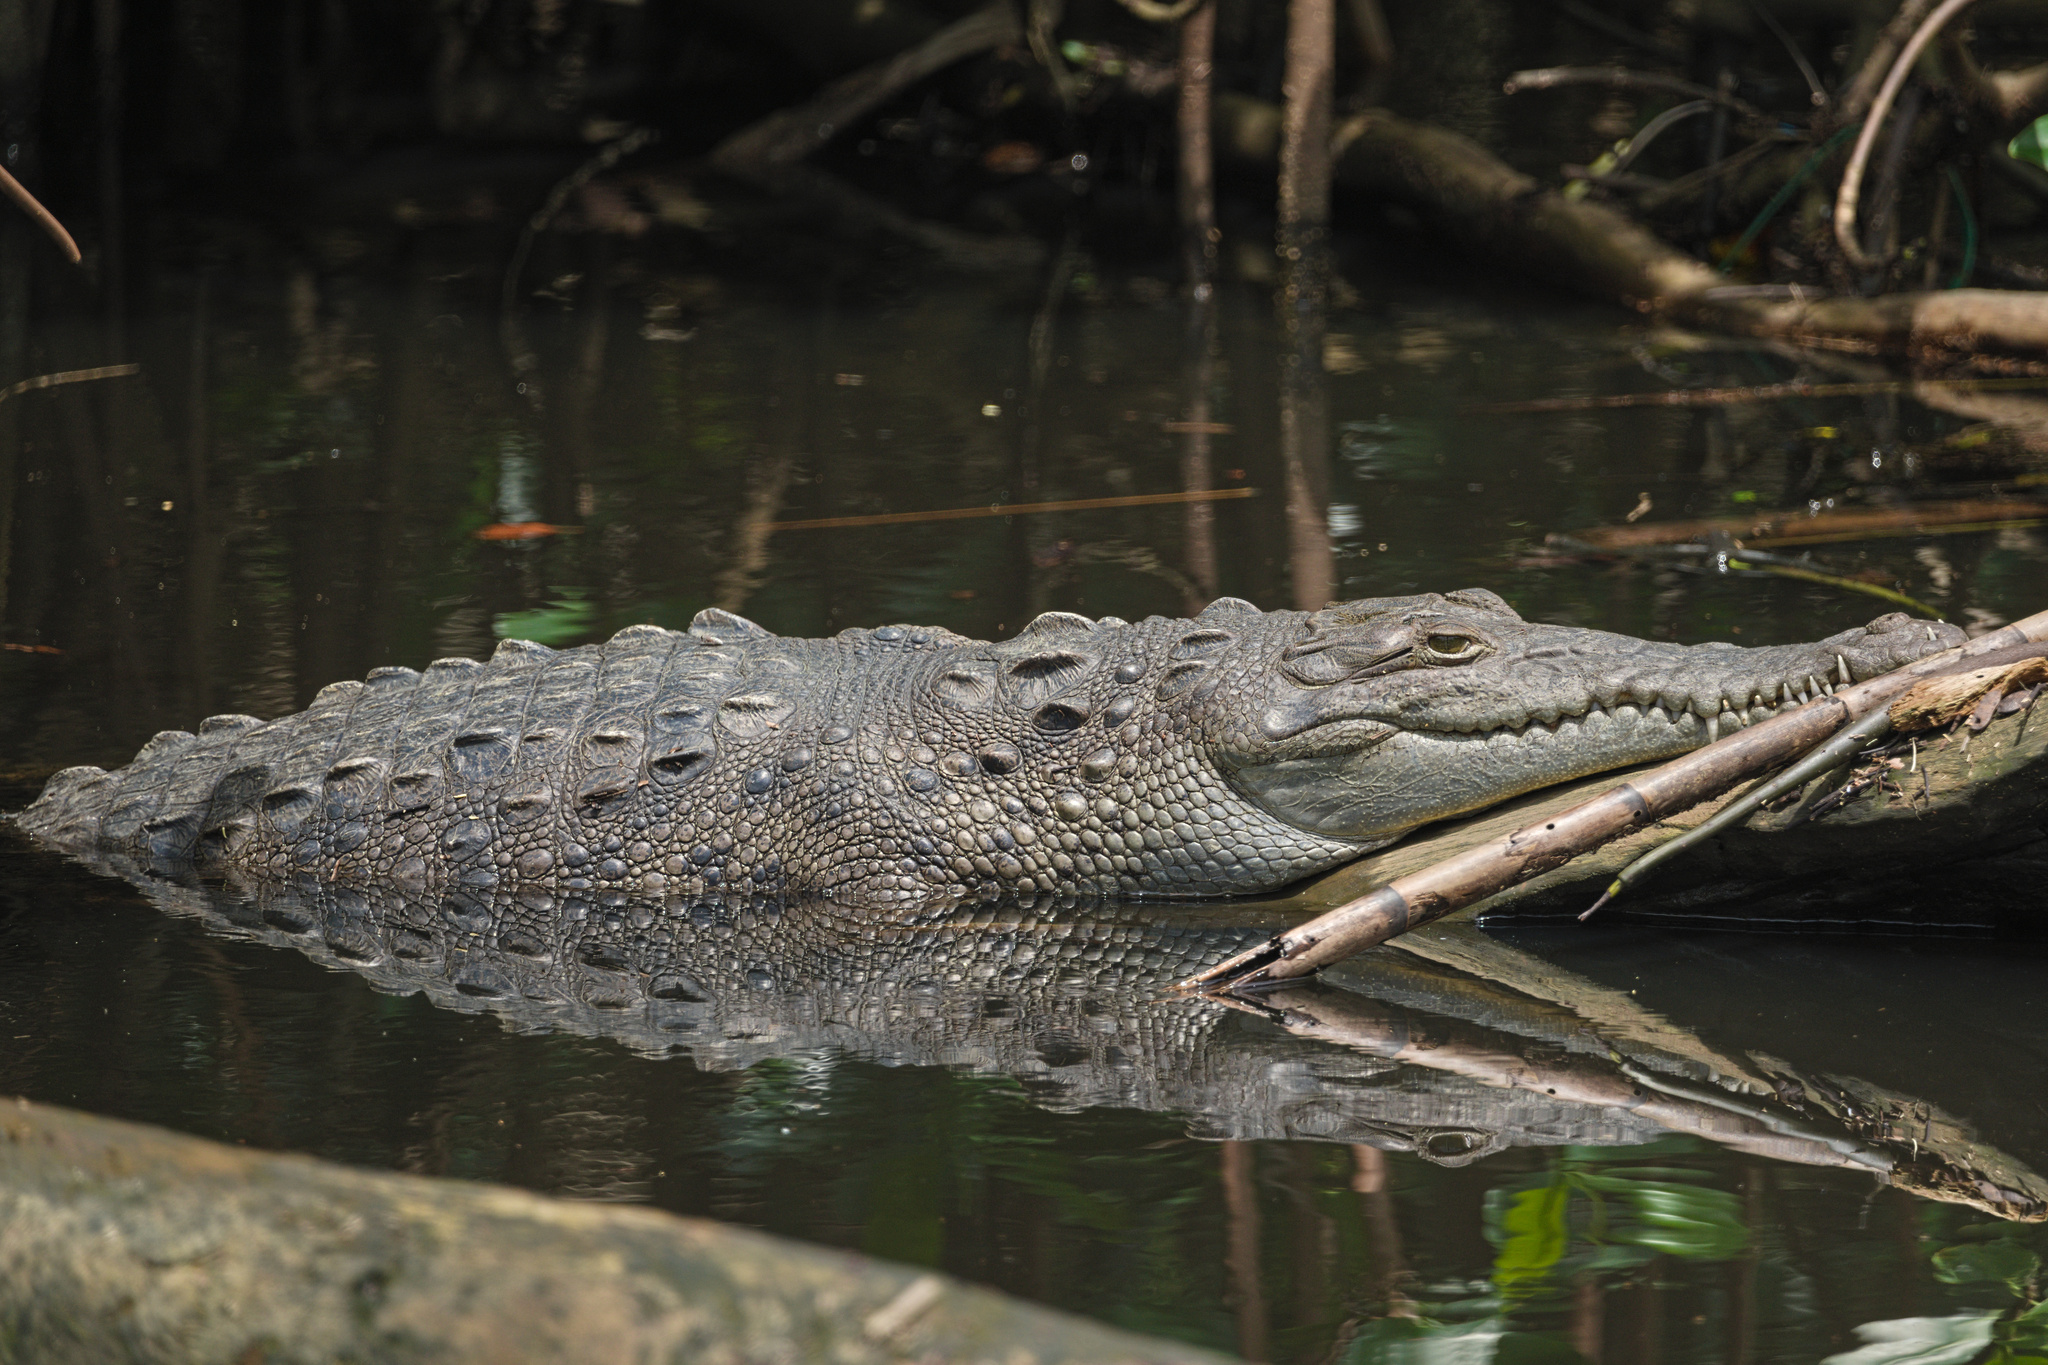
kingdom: Animalia
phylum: Chordata
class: Crocodylia
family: Crocodylidae
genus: Crocodylus
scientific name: Crocodylus acutus
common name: American crocodile
